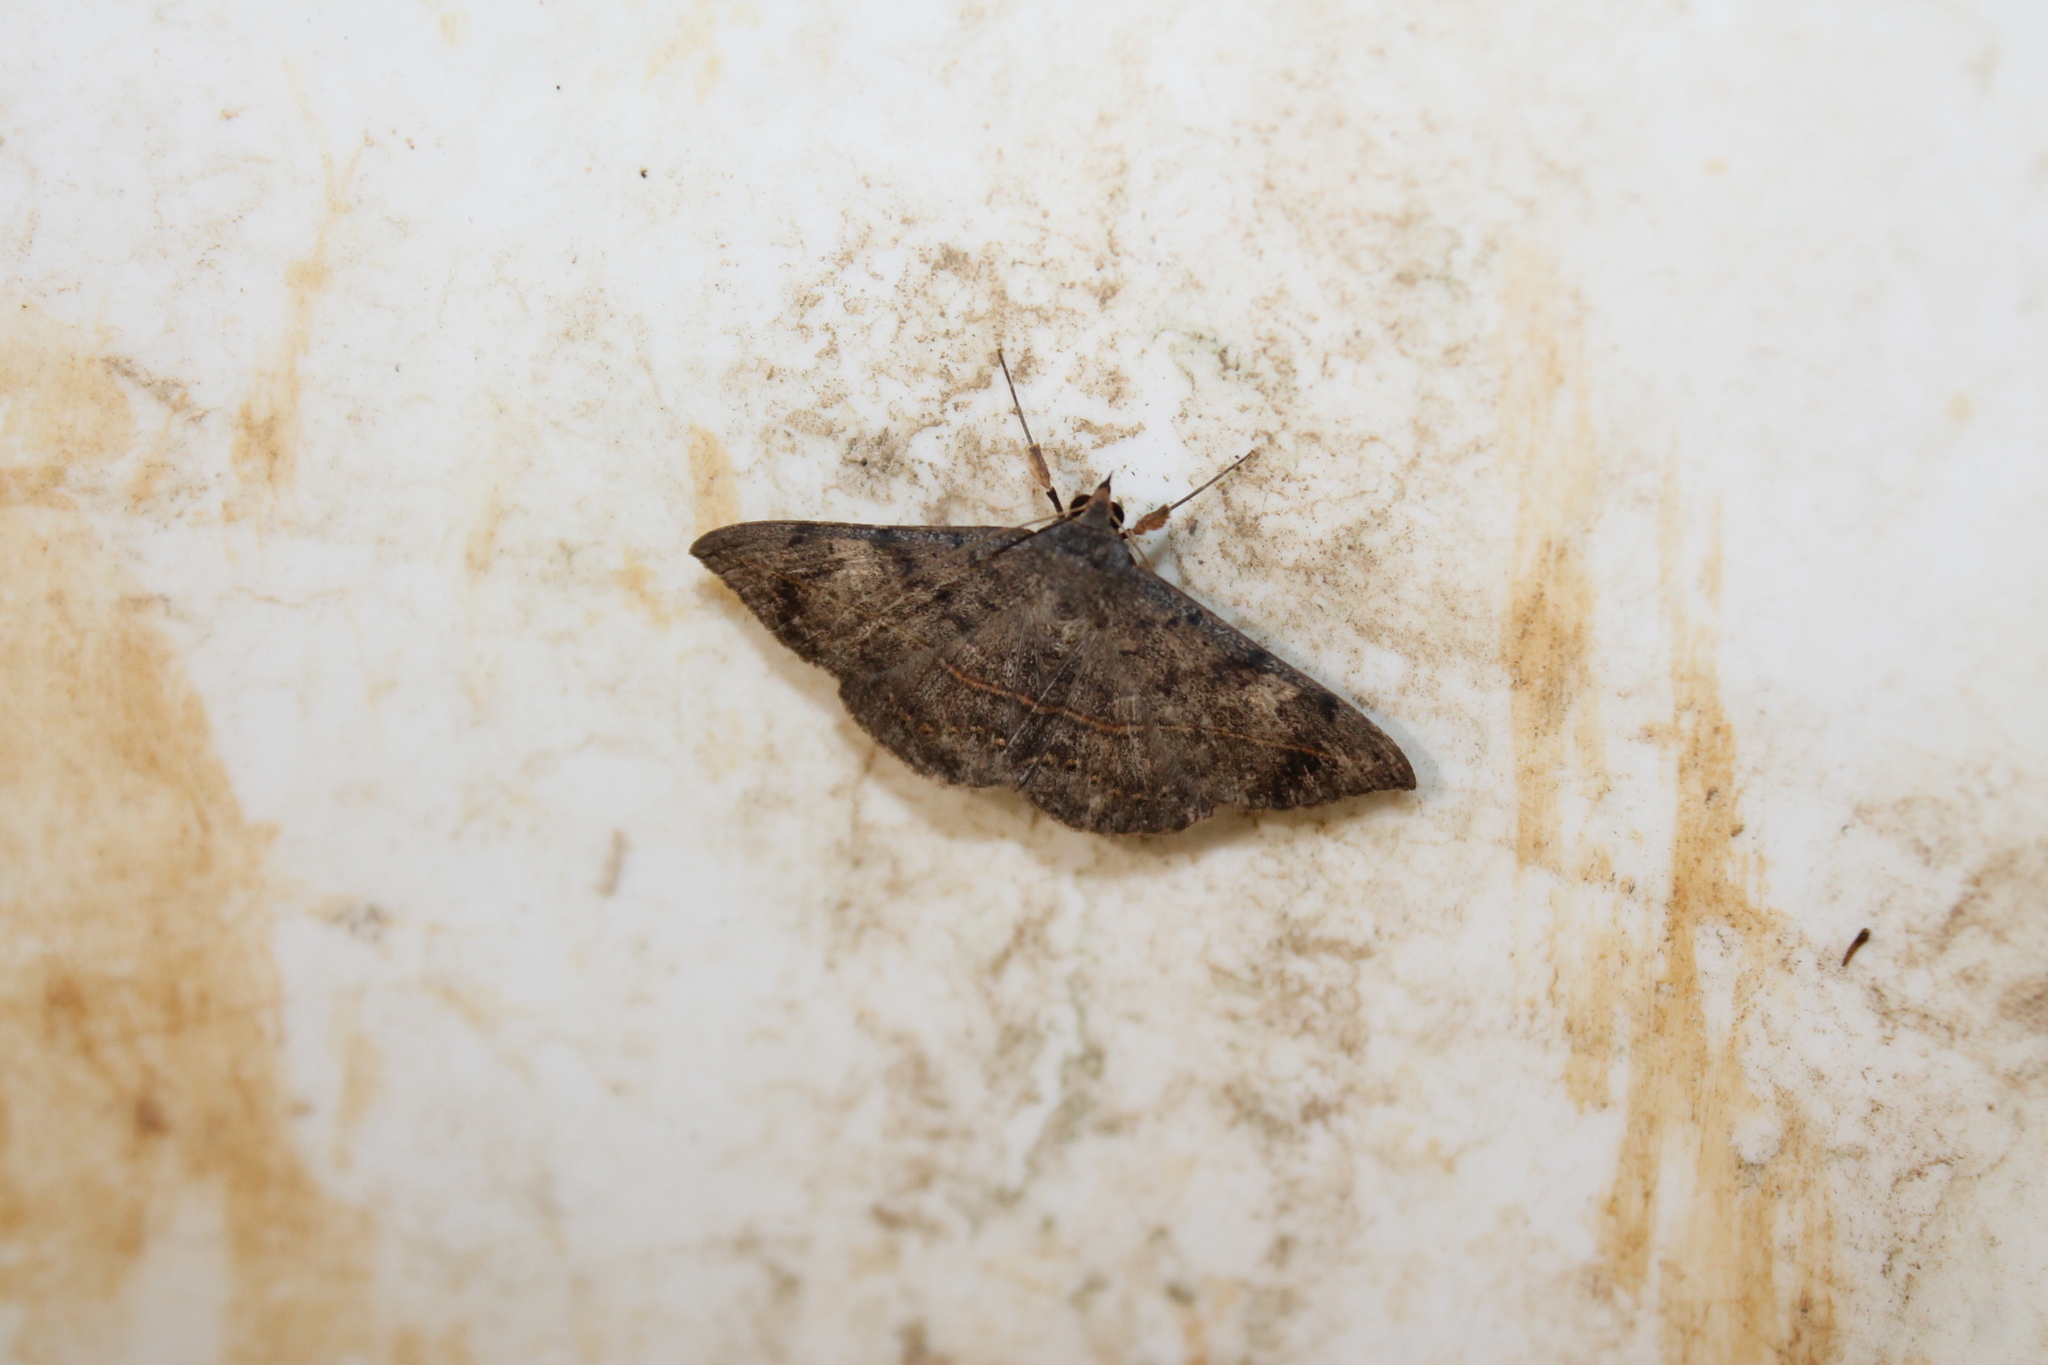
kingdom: Animalia
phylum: Arthropoda
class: Insecta
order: Lepidoptera
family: Erebidae
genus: Anticarsia
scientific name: Anticarsia gemmatalis
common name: Cutworm moth
